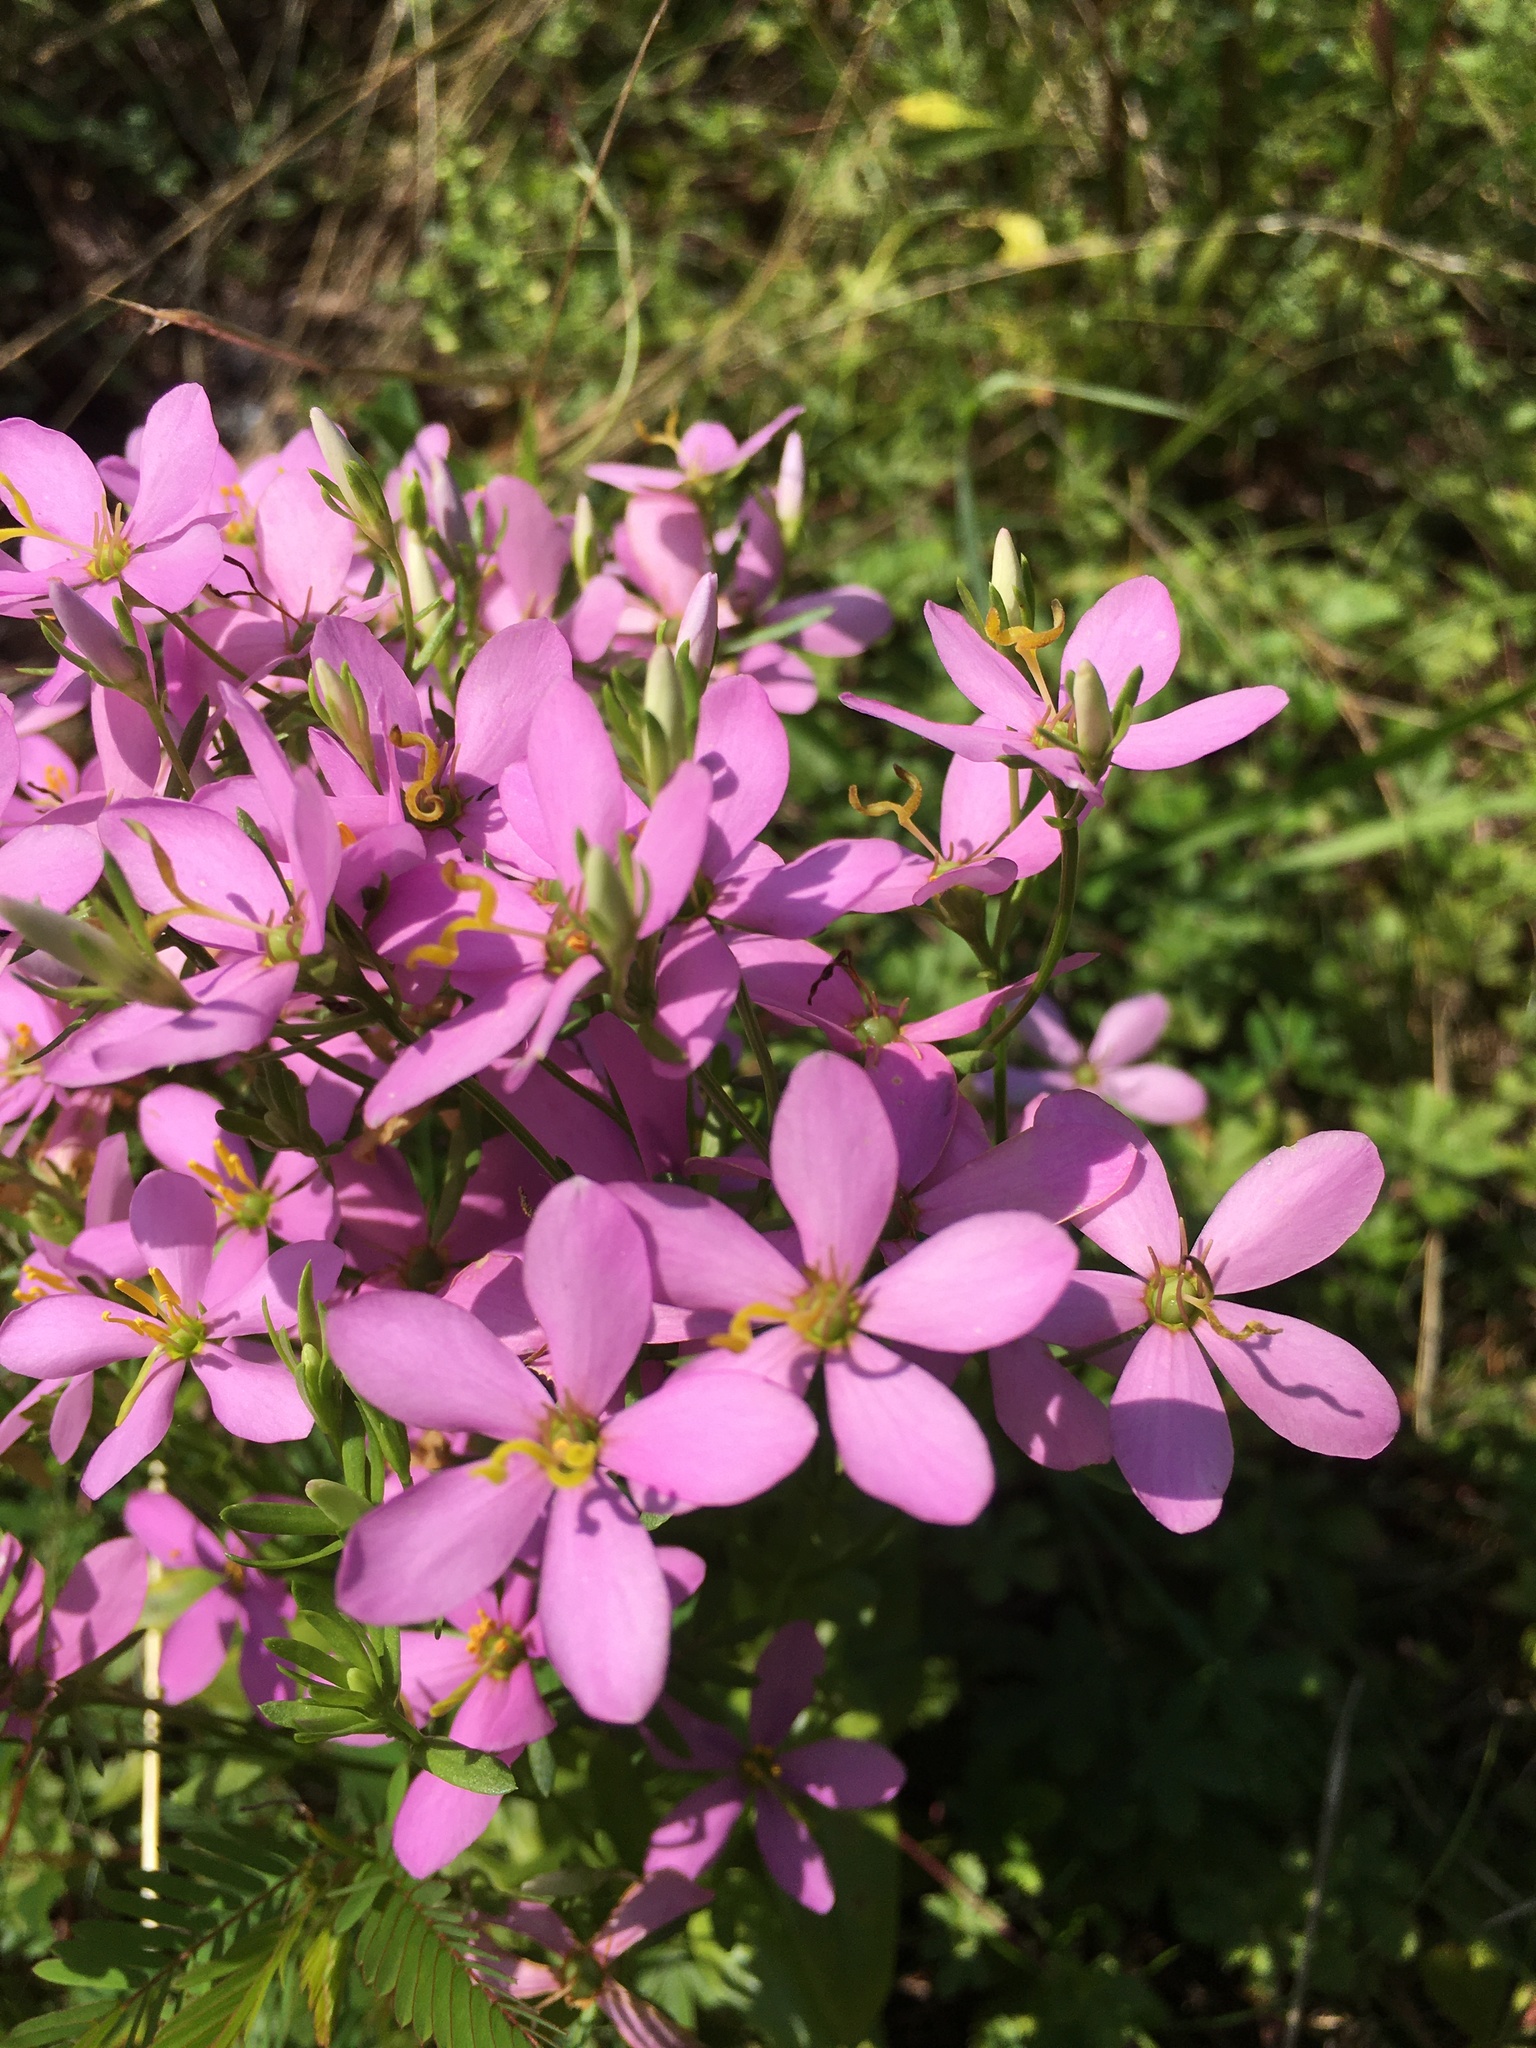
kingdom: Plantae
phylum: Tracheophyta
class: Magnoliopsida
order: Gentianales
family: Gentianaceae
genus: Sabatia
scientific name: Sabatia angularis
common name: Rose-pink
